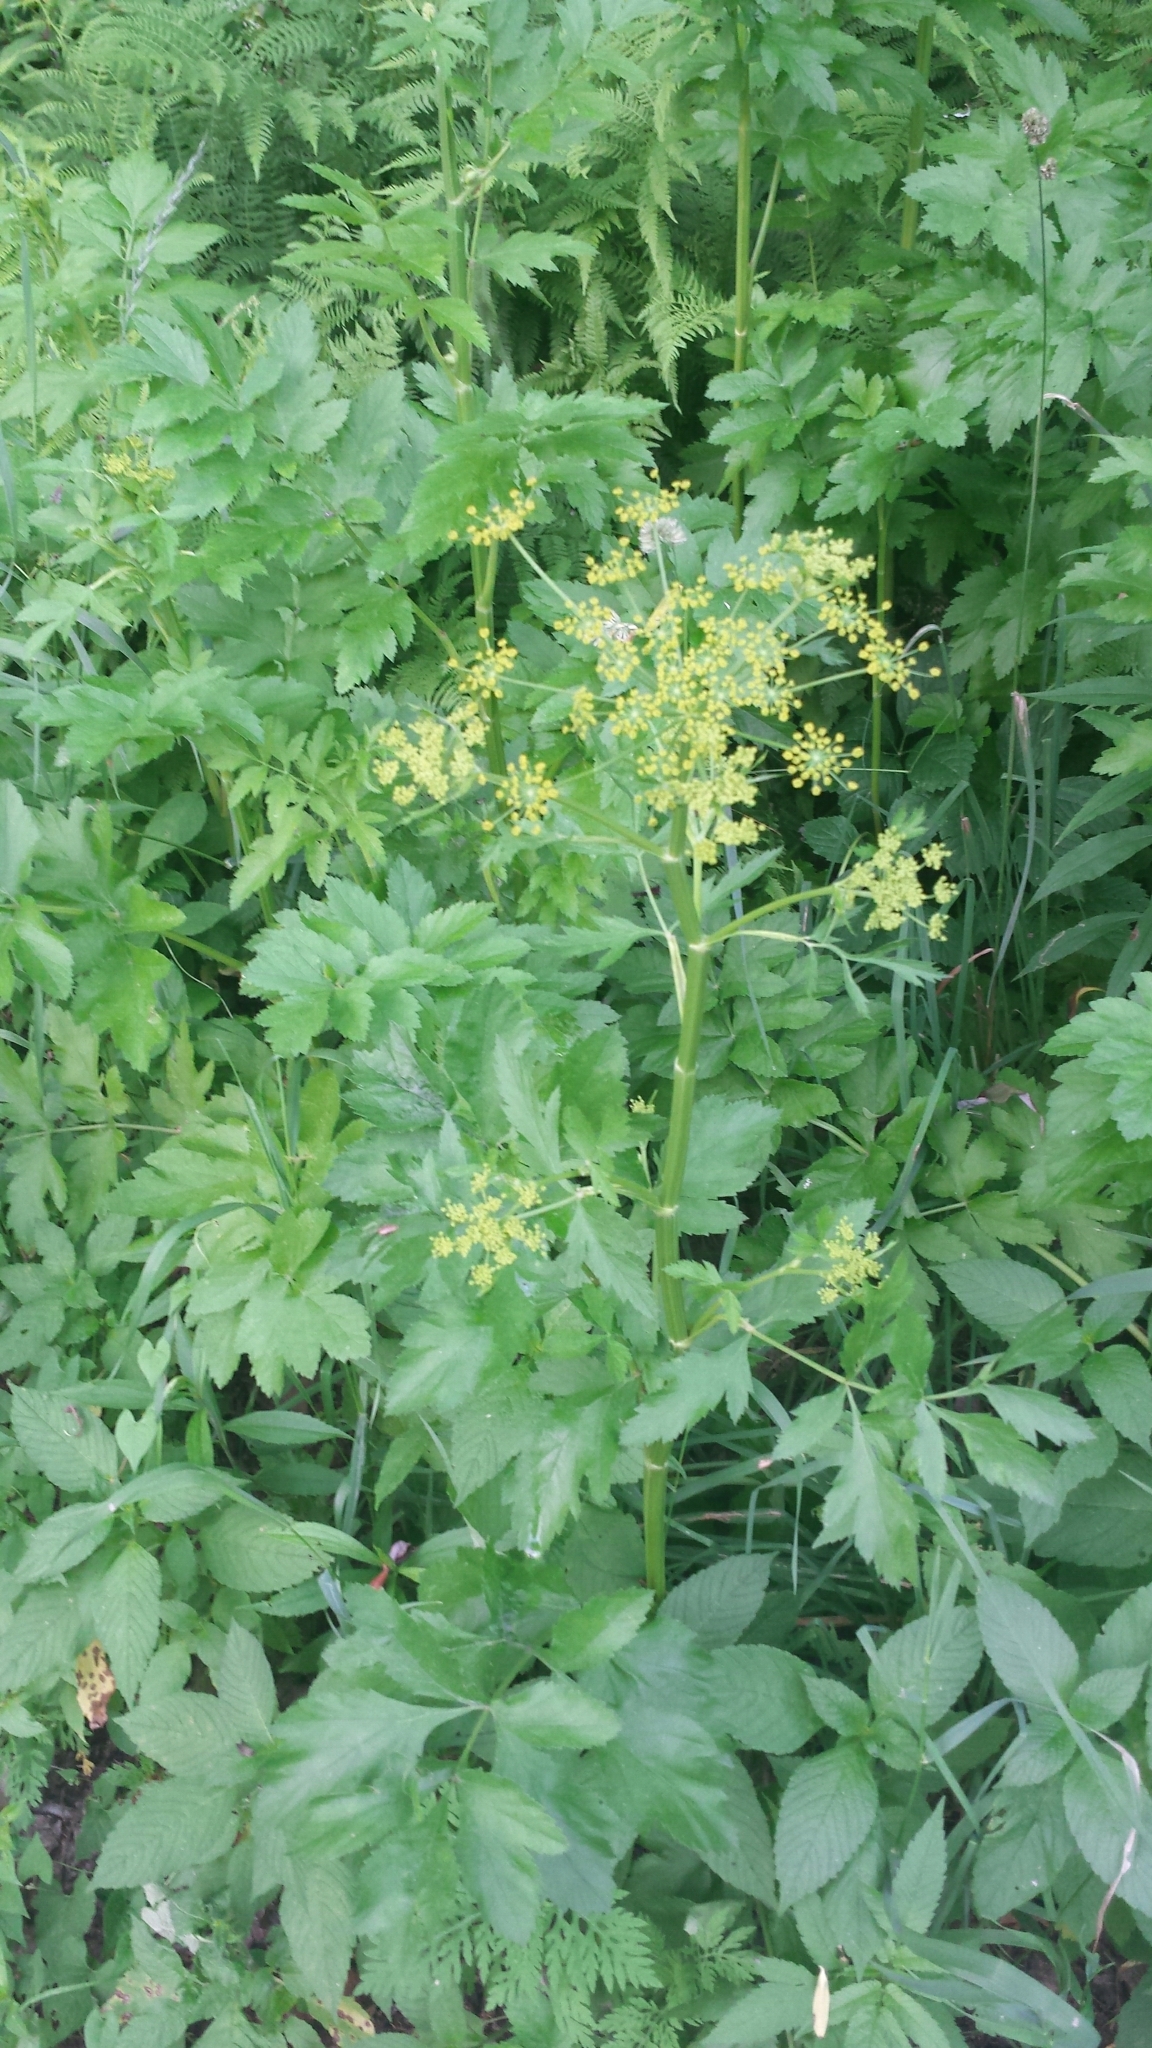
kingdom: Plantae
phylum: Tracheophyta
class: Magnoliopsida
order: Apiales
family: Apiaceae
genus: Pastinaca
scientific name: Pastinaca sativa
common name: Wild parsnip
